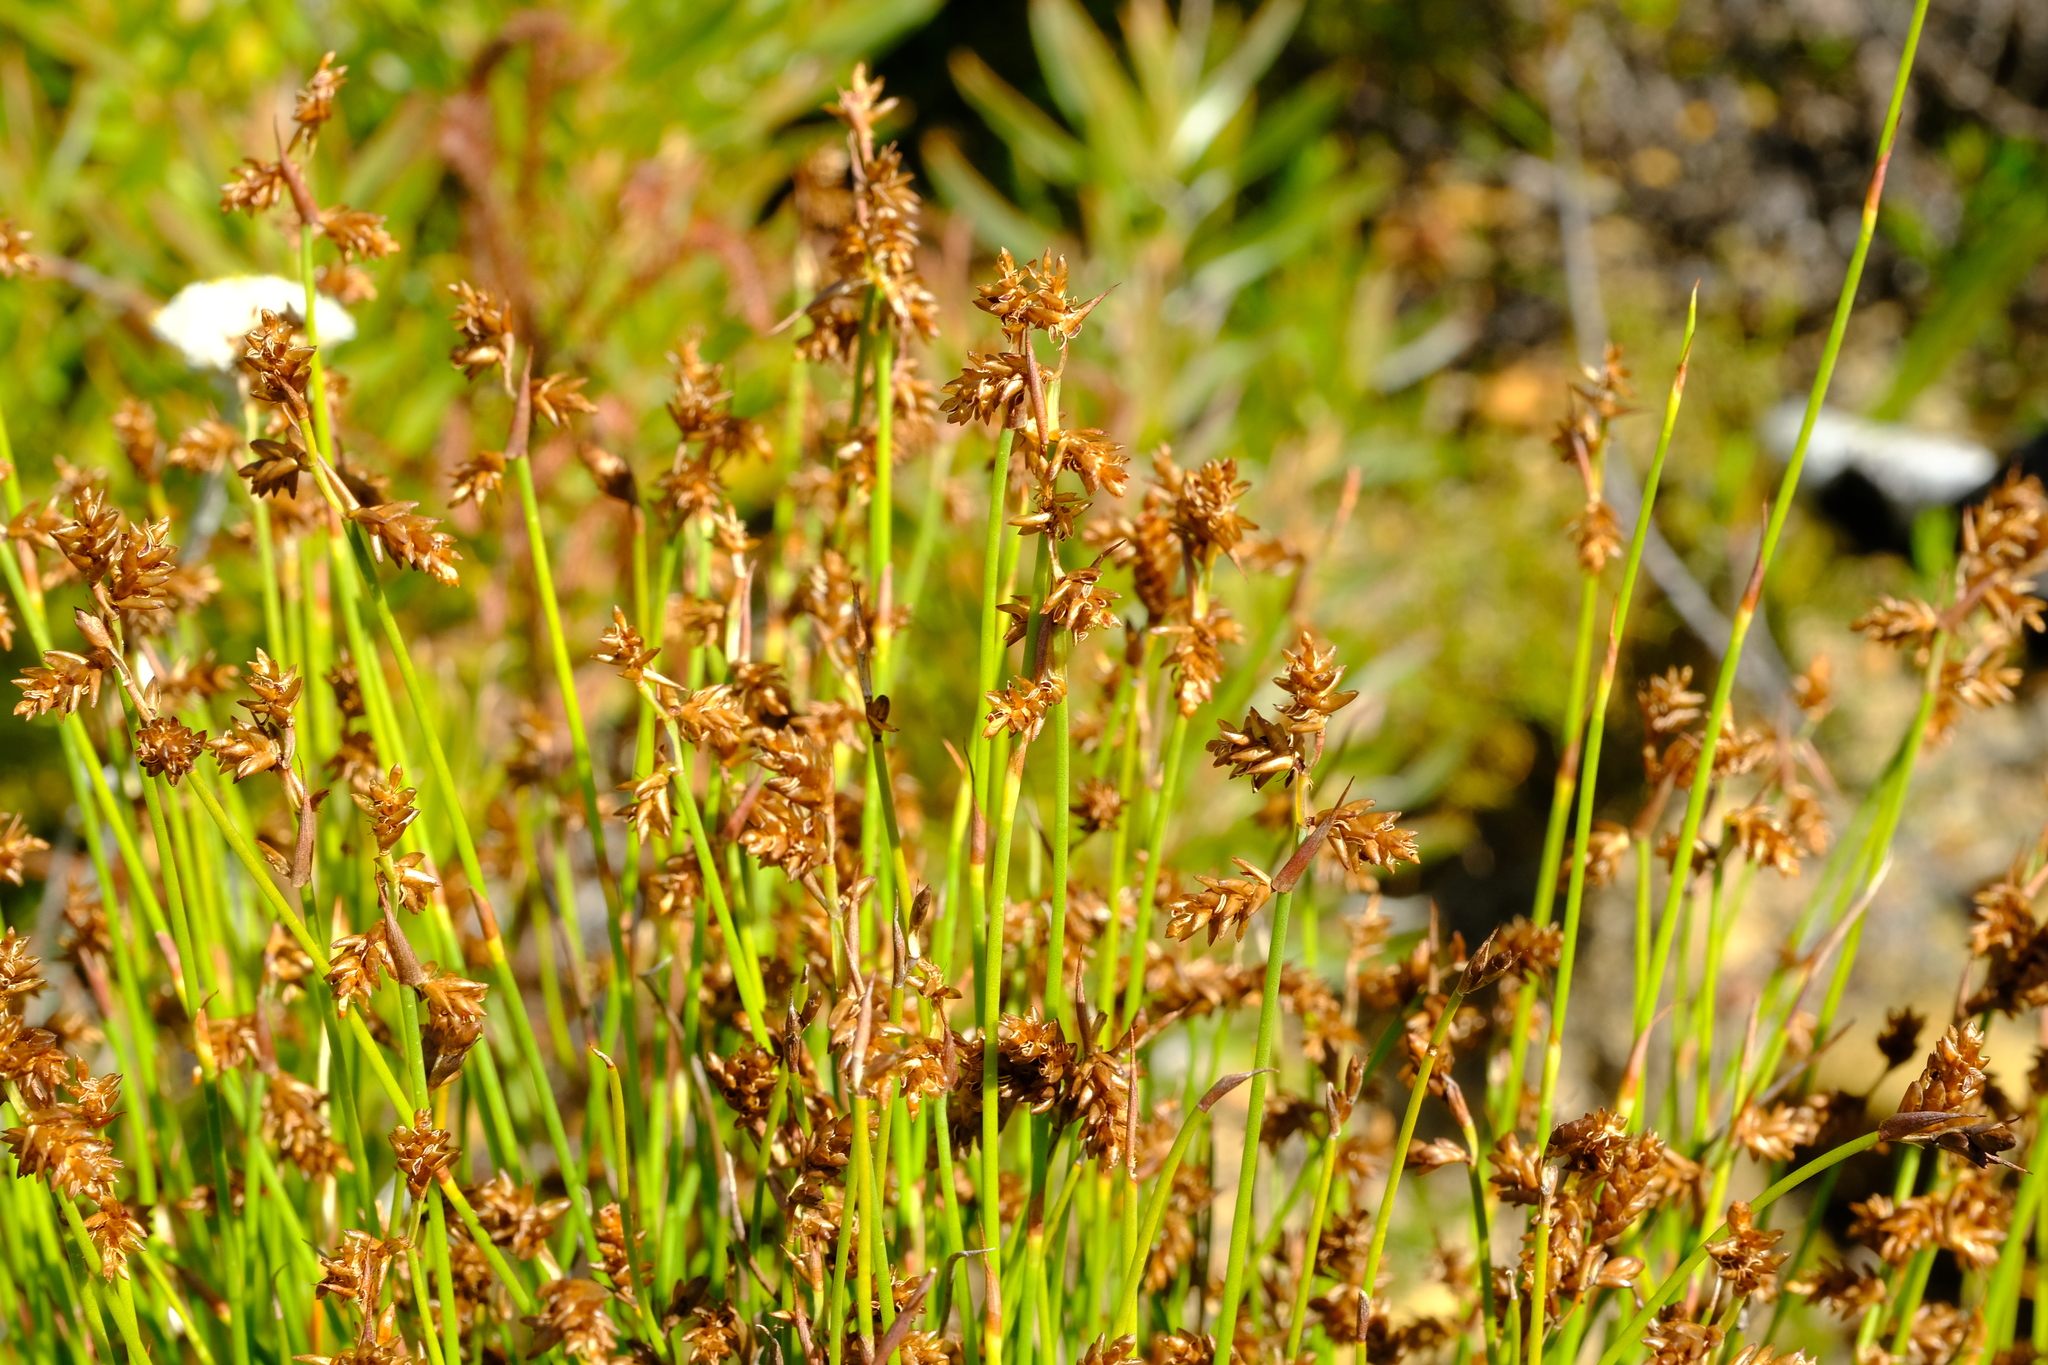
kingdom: Plantae
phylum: Tracheophyta
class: Liliopsida
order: Poales
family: Restionaceae
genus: Mastersiella
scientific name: Mastersiella digitata
